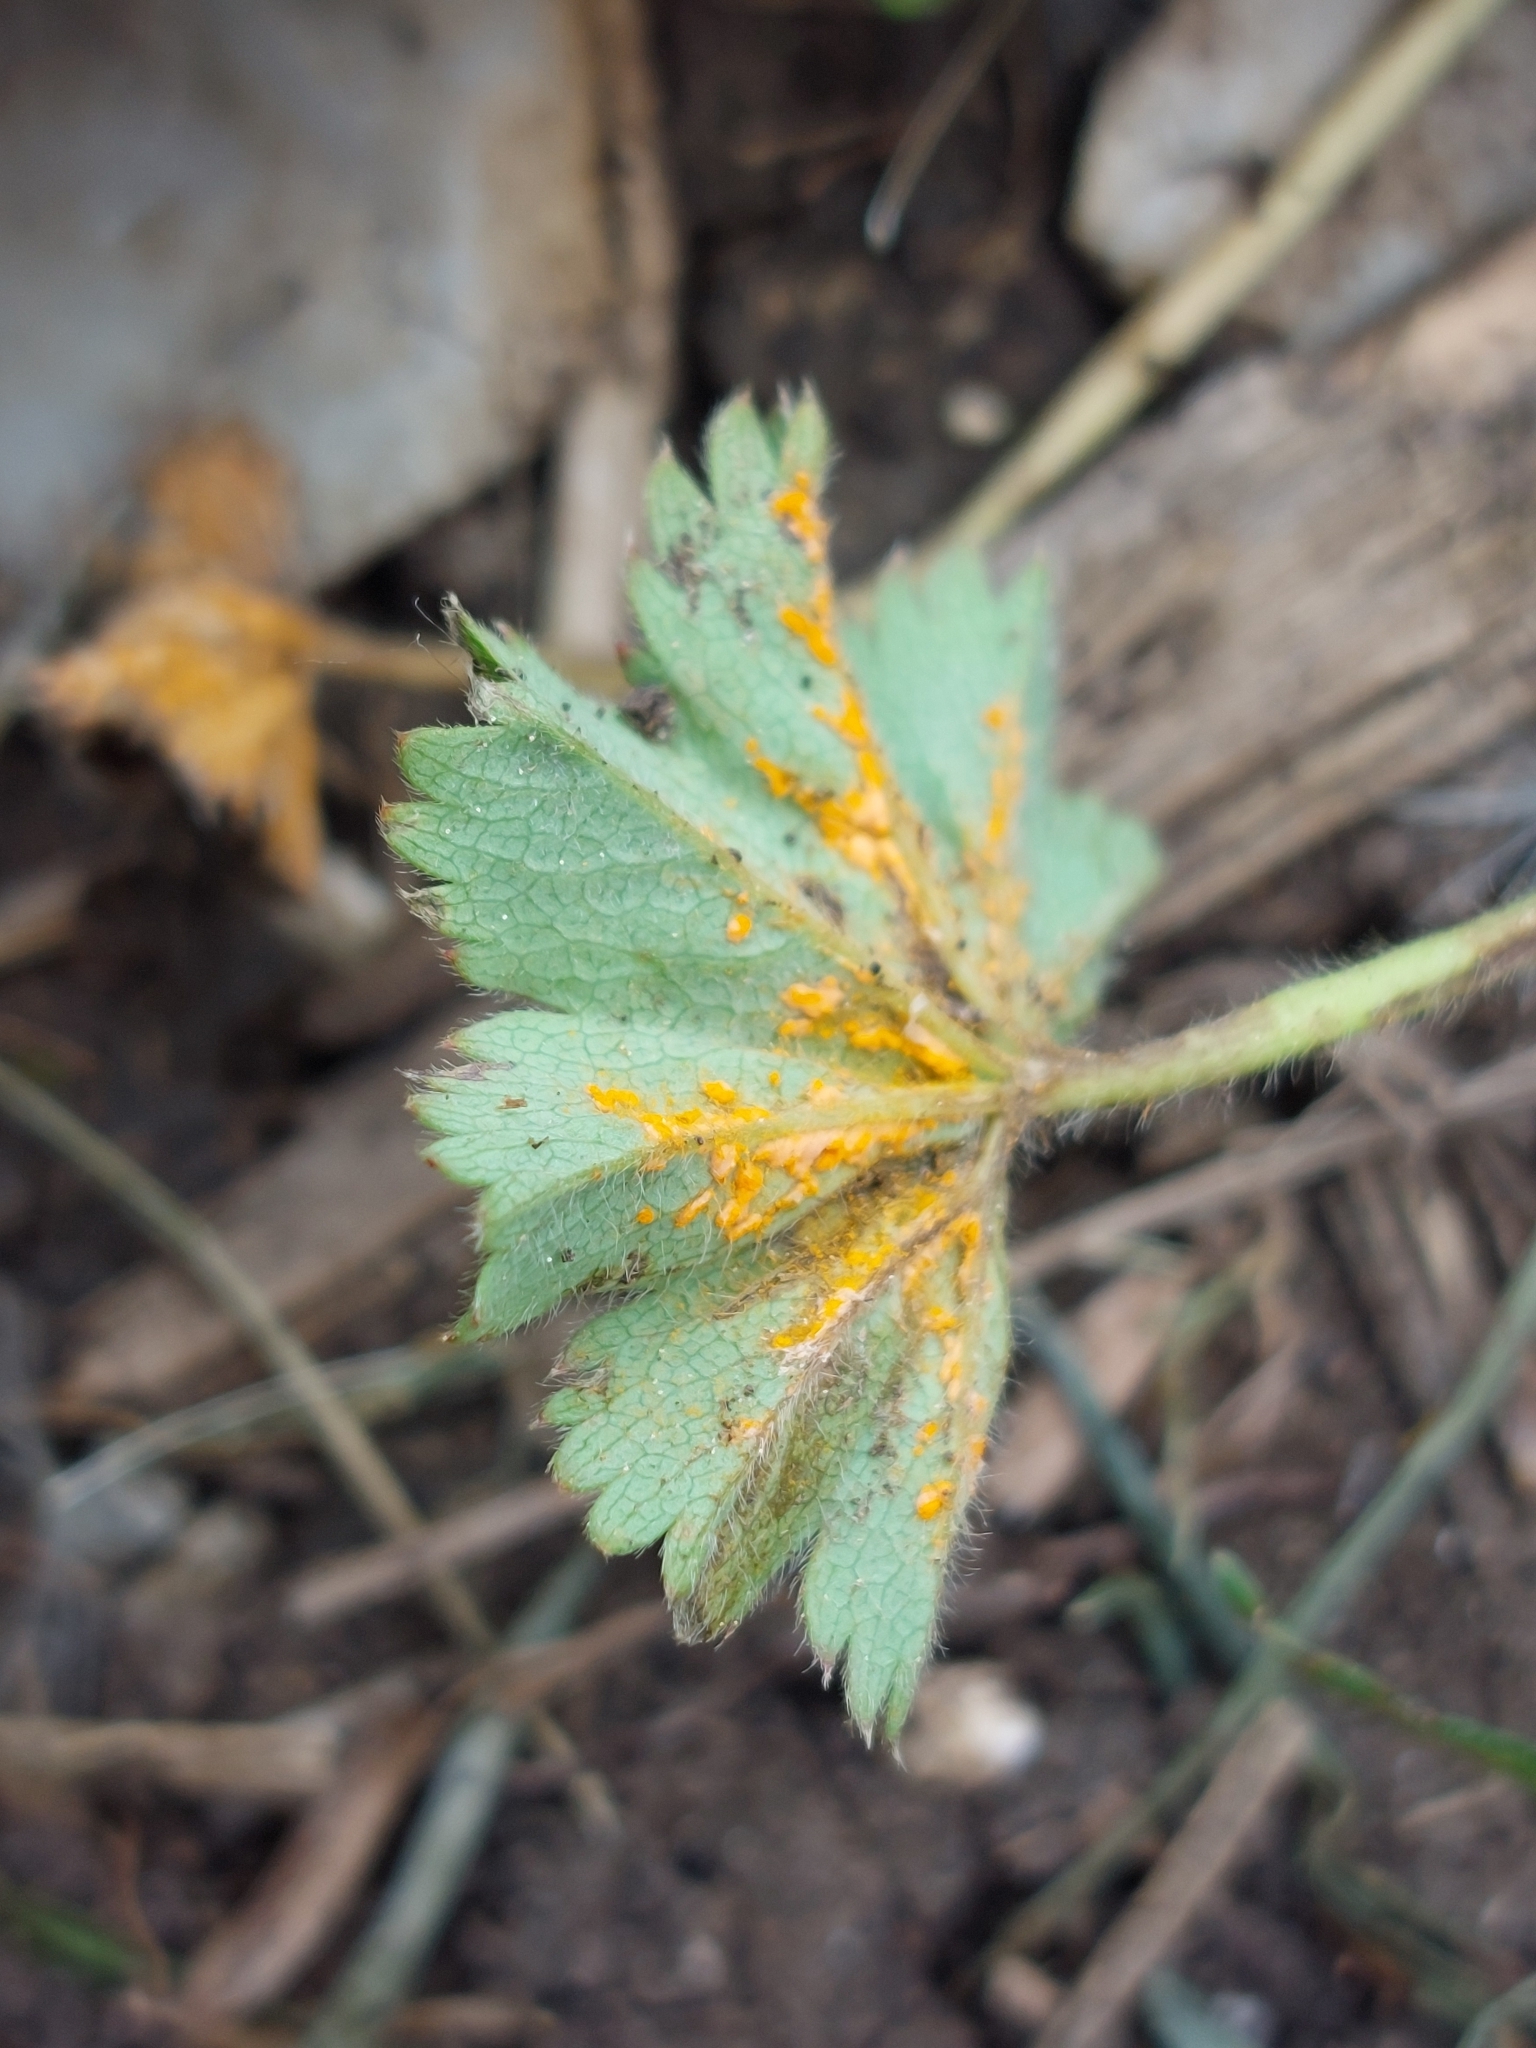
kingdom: Fungi
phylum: Basidiomycota
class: Pucciniomycetes
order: Pucciniales
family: Phragmidiaceae
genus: Trachyspora
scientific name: Trachyspora alchemillae
